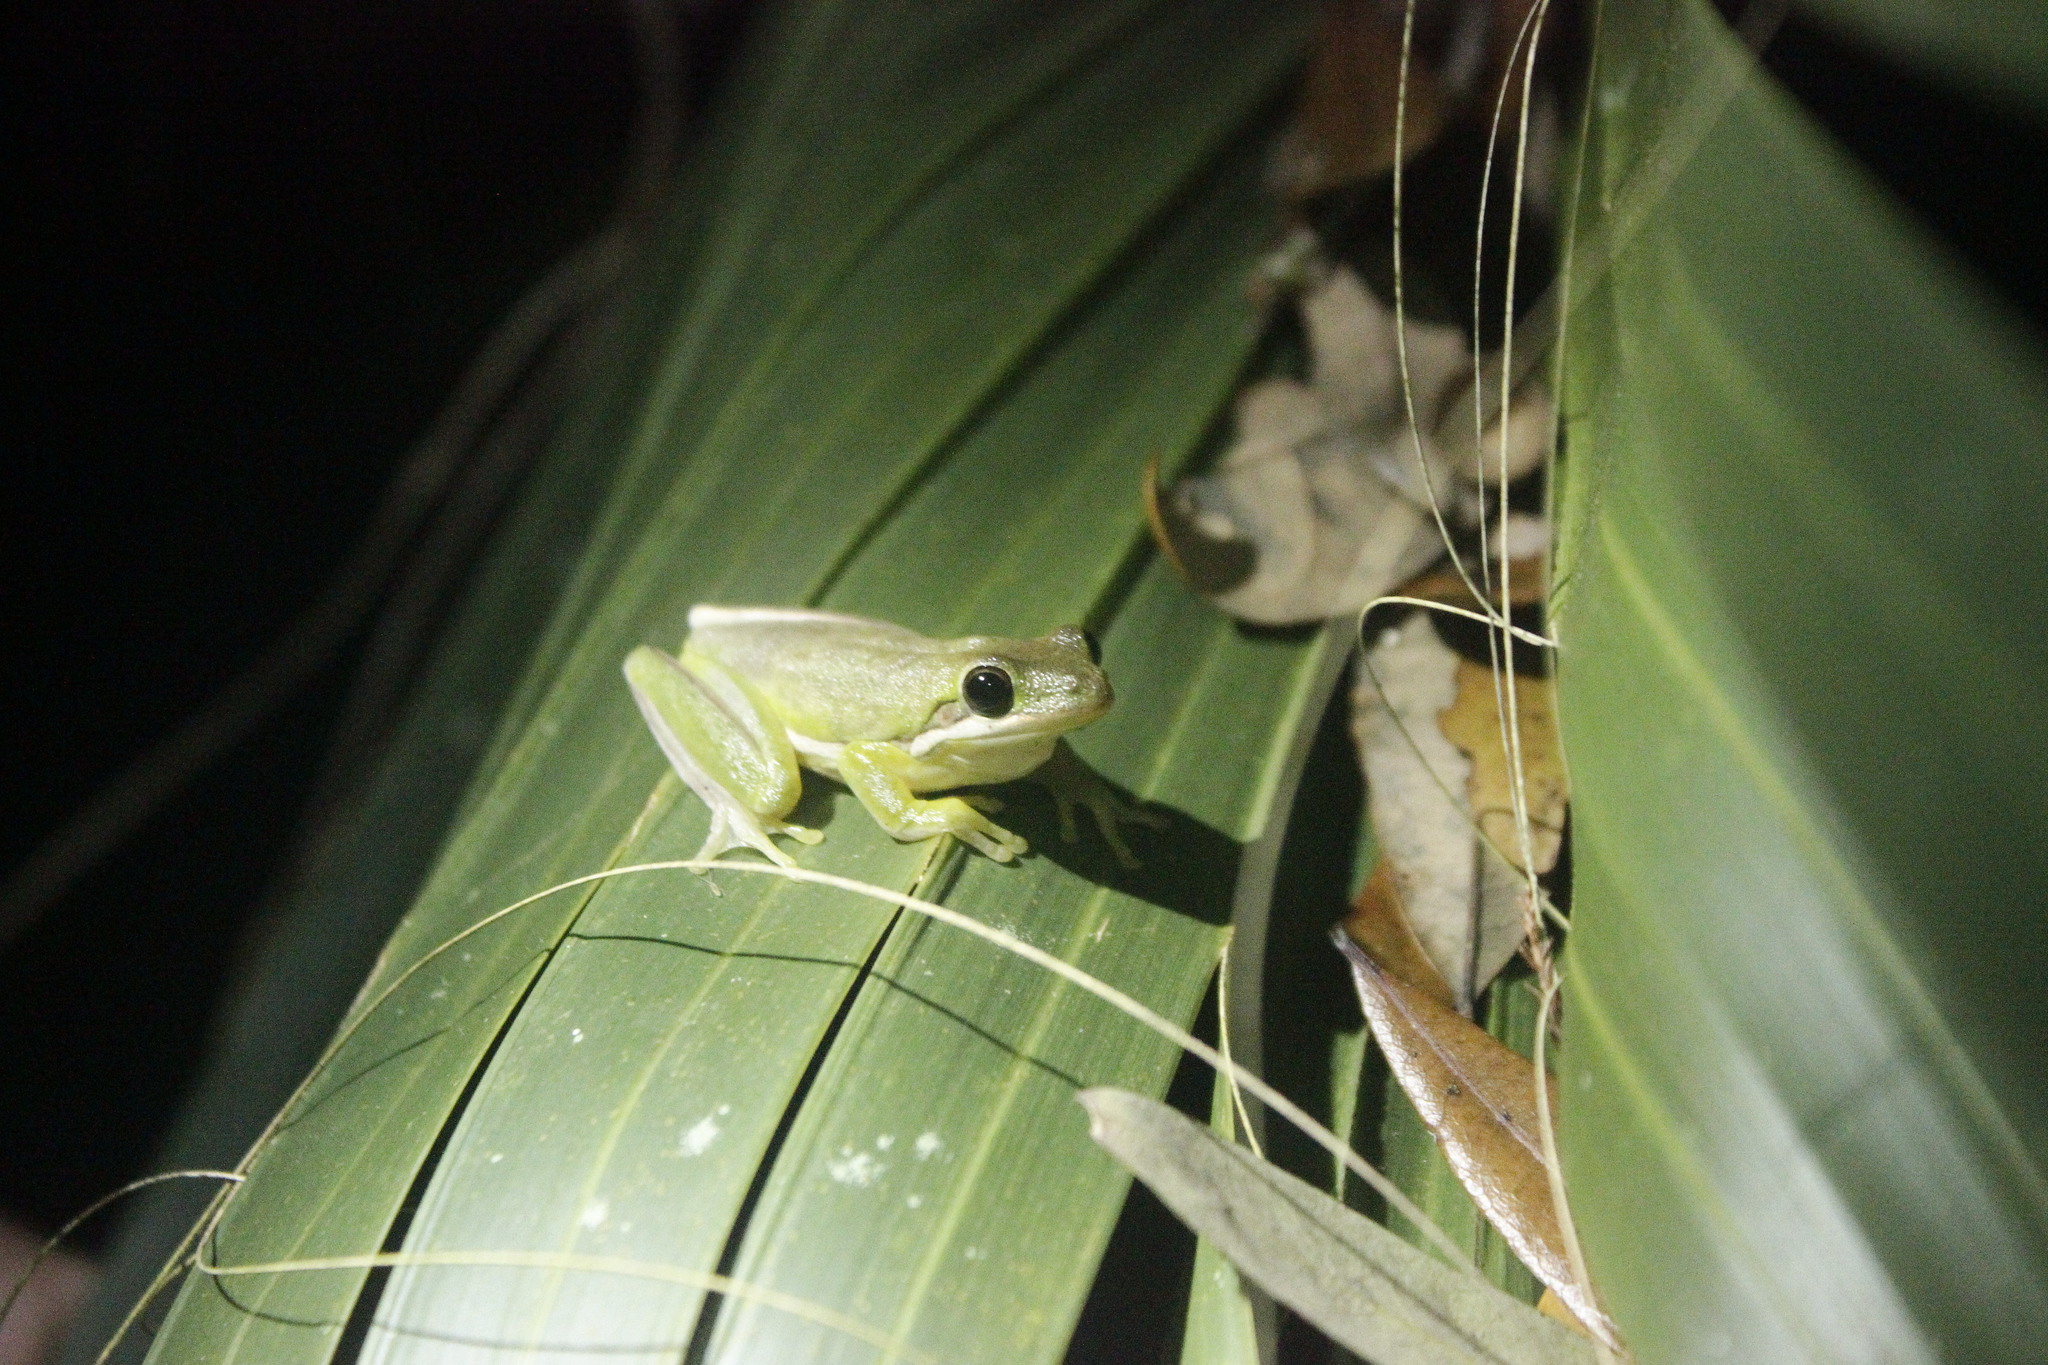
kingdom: Animalia
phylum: Chordata
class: Amphibia
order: Anura
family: Hylidae
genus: Dryophytes
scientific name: Dryophytes cinereus
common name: Green treefrog
